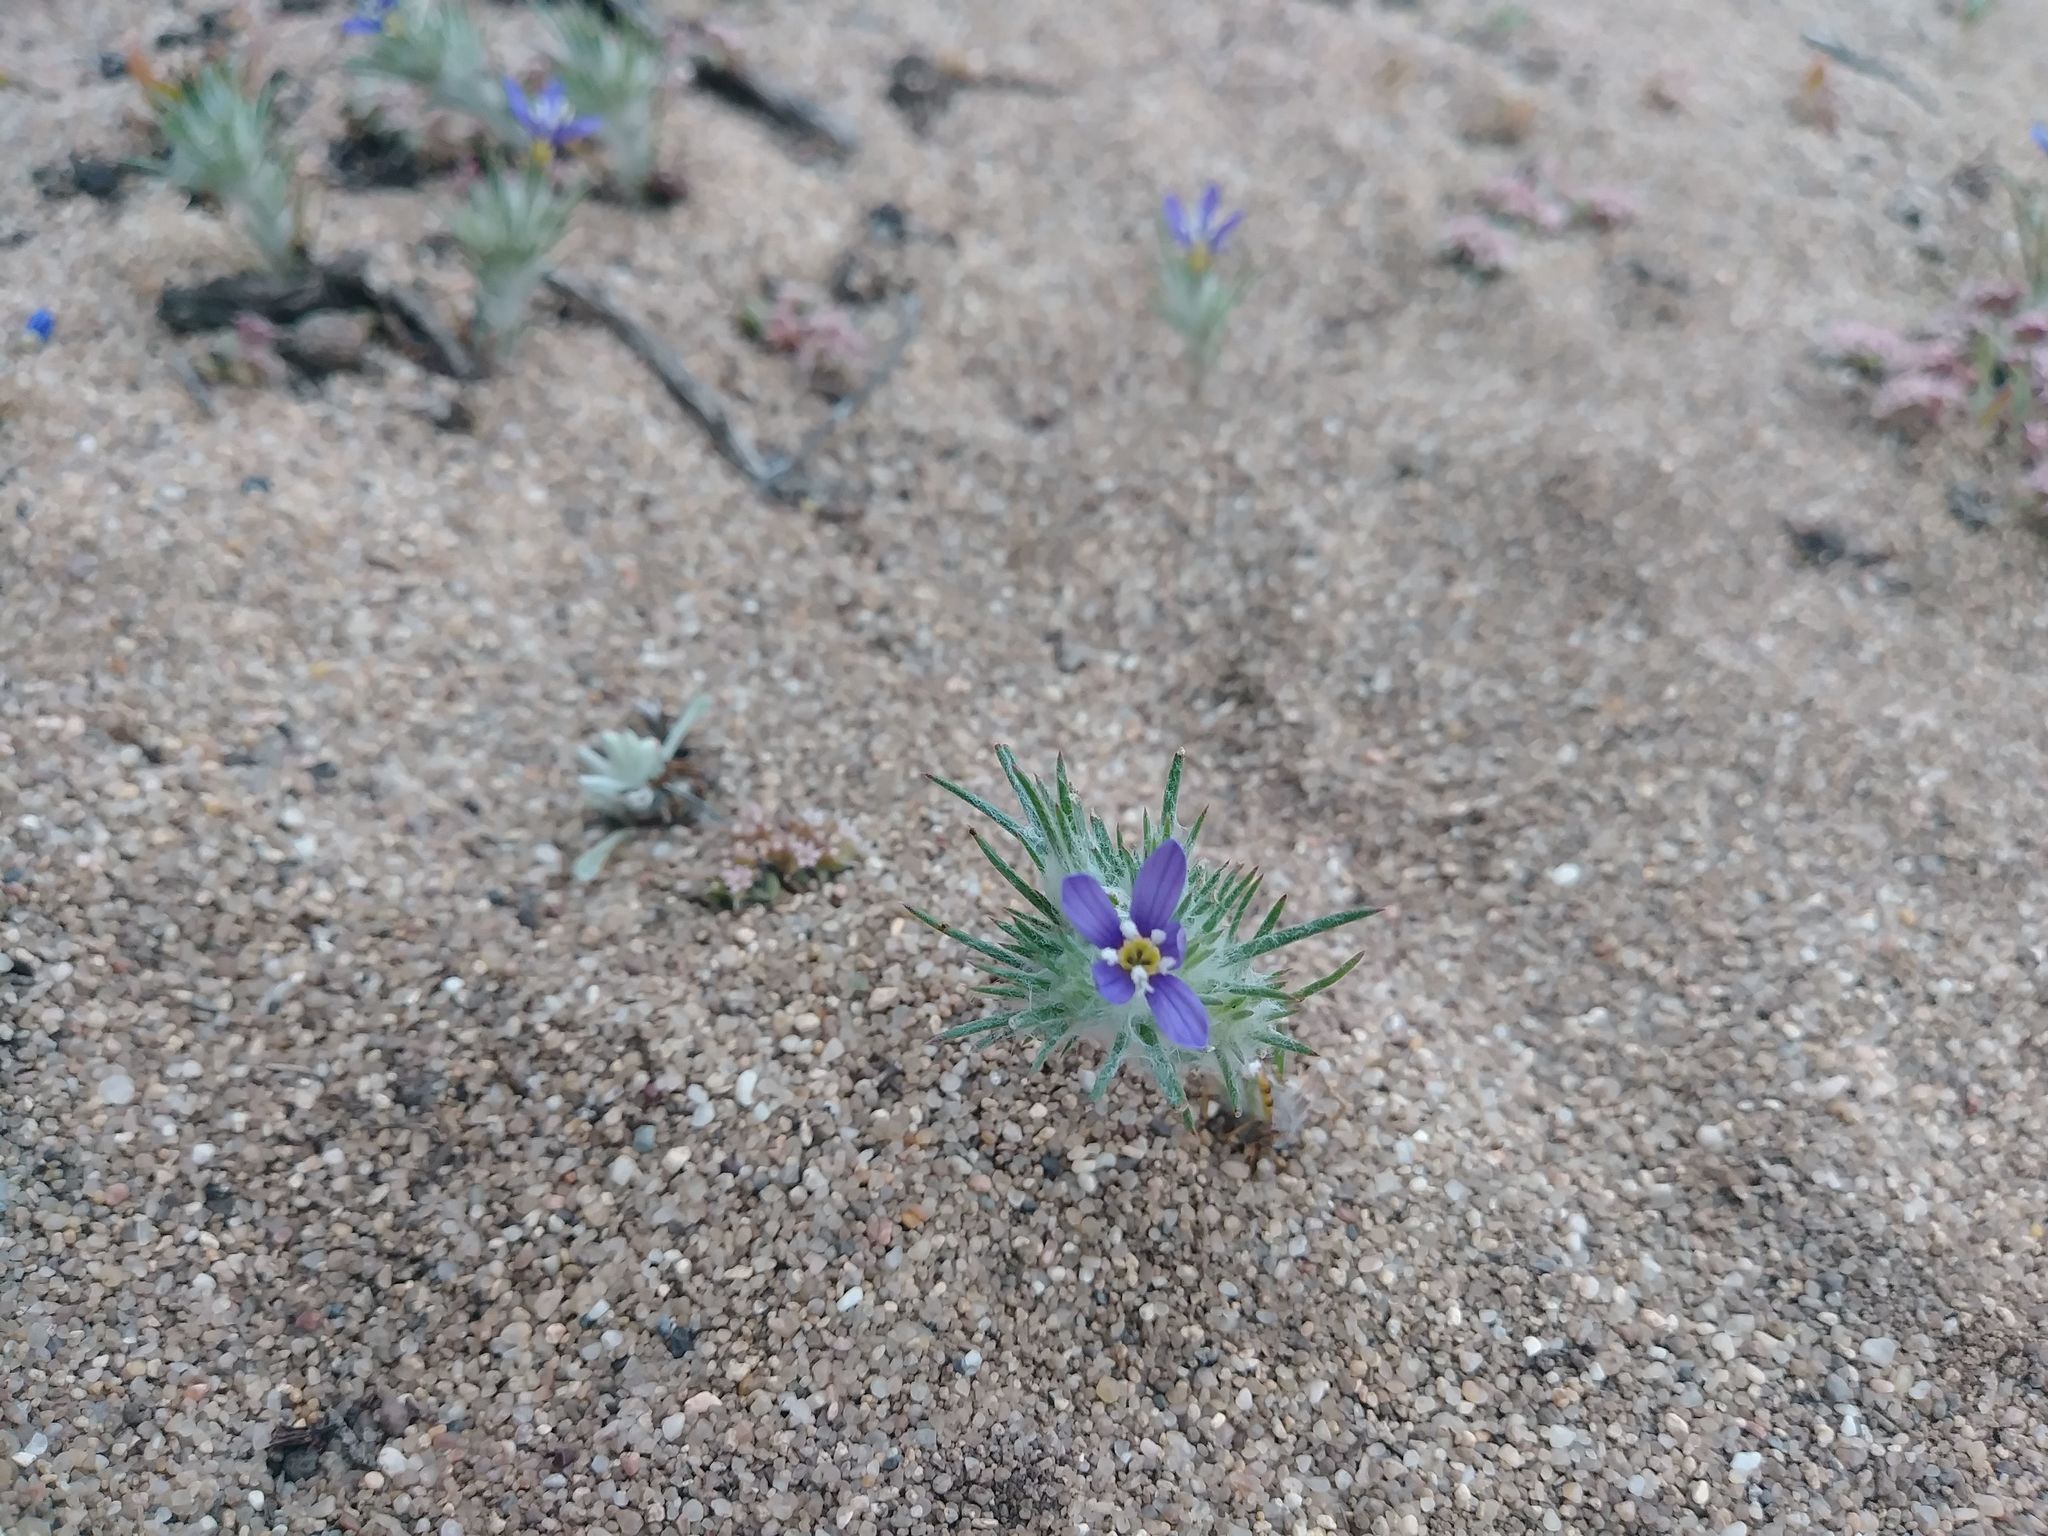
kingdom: Plantae
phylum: Tracheophyta
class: Magnoliopsida
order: Ericales
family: Polemoniaceae
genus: Eriastrum
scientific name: Eriastrum virgatum
